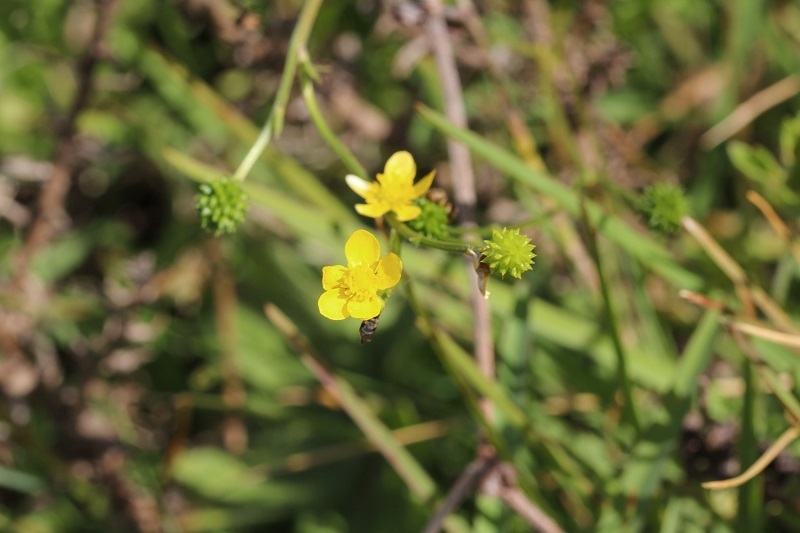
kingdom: Plantae
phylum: Tracheophyta
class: Magnoliopsida
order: Ranunculales
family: Ranunculaceae
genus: Ranunculus
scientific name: Ranunculus multifidus
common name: Wild buttercup
